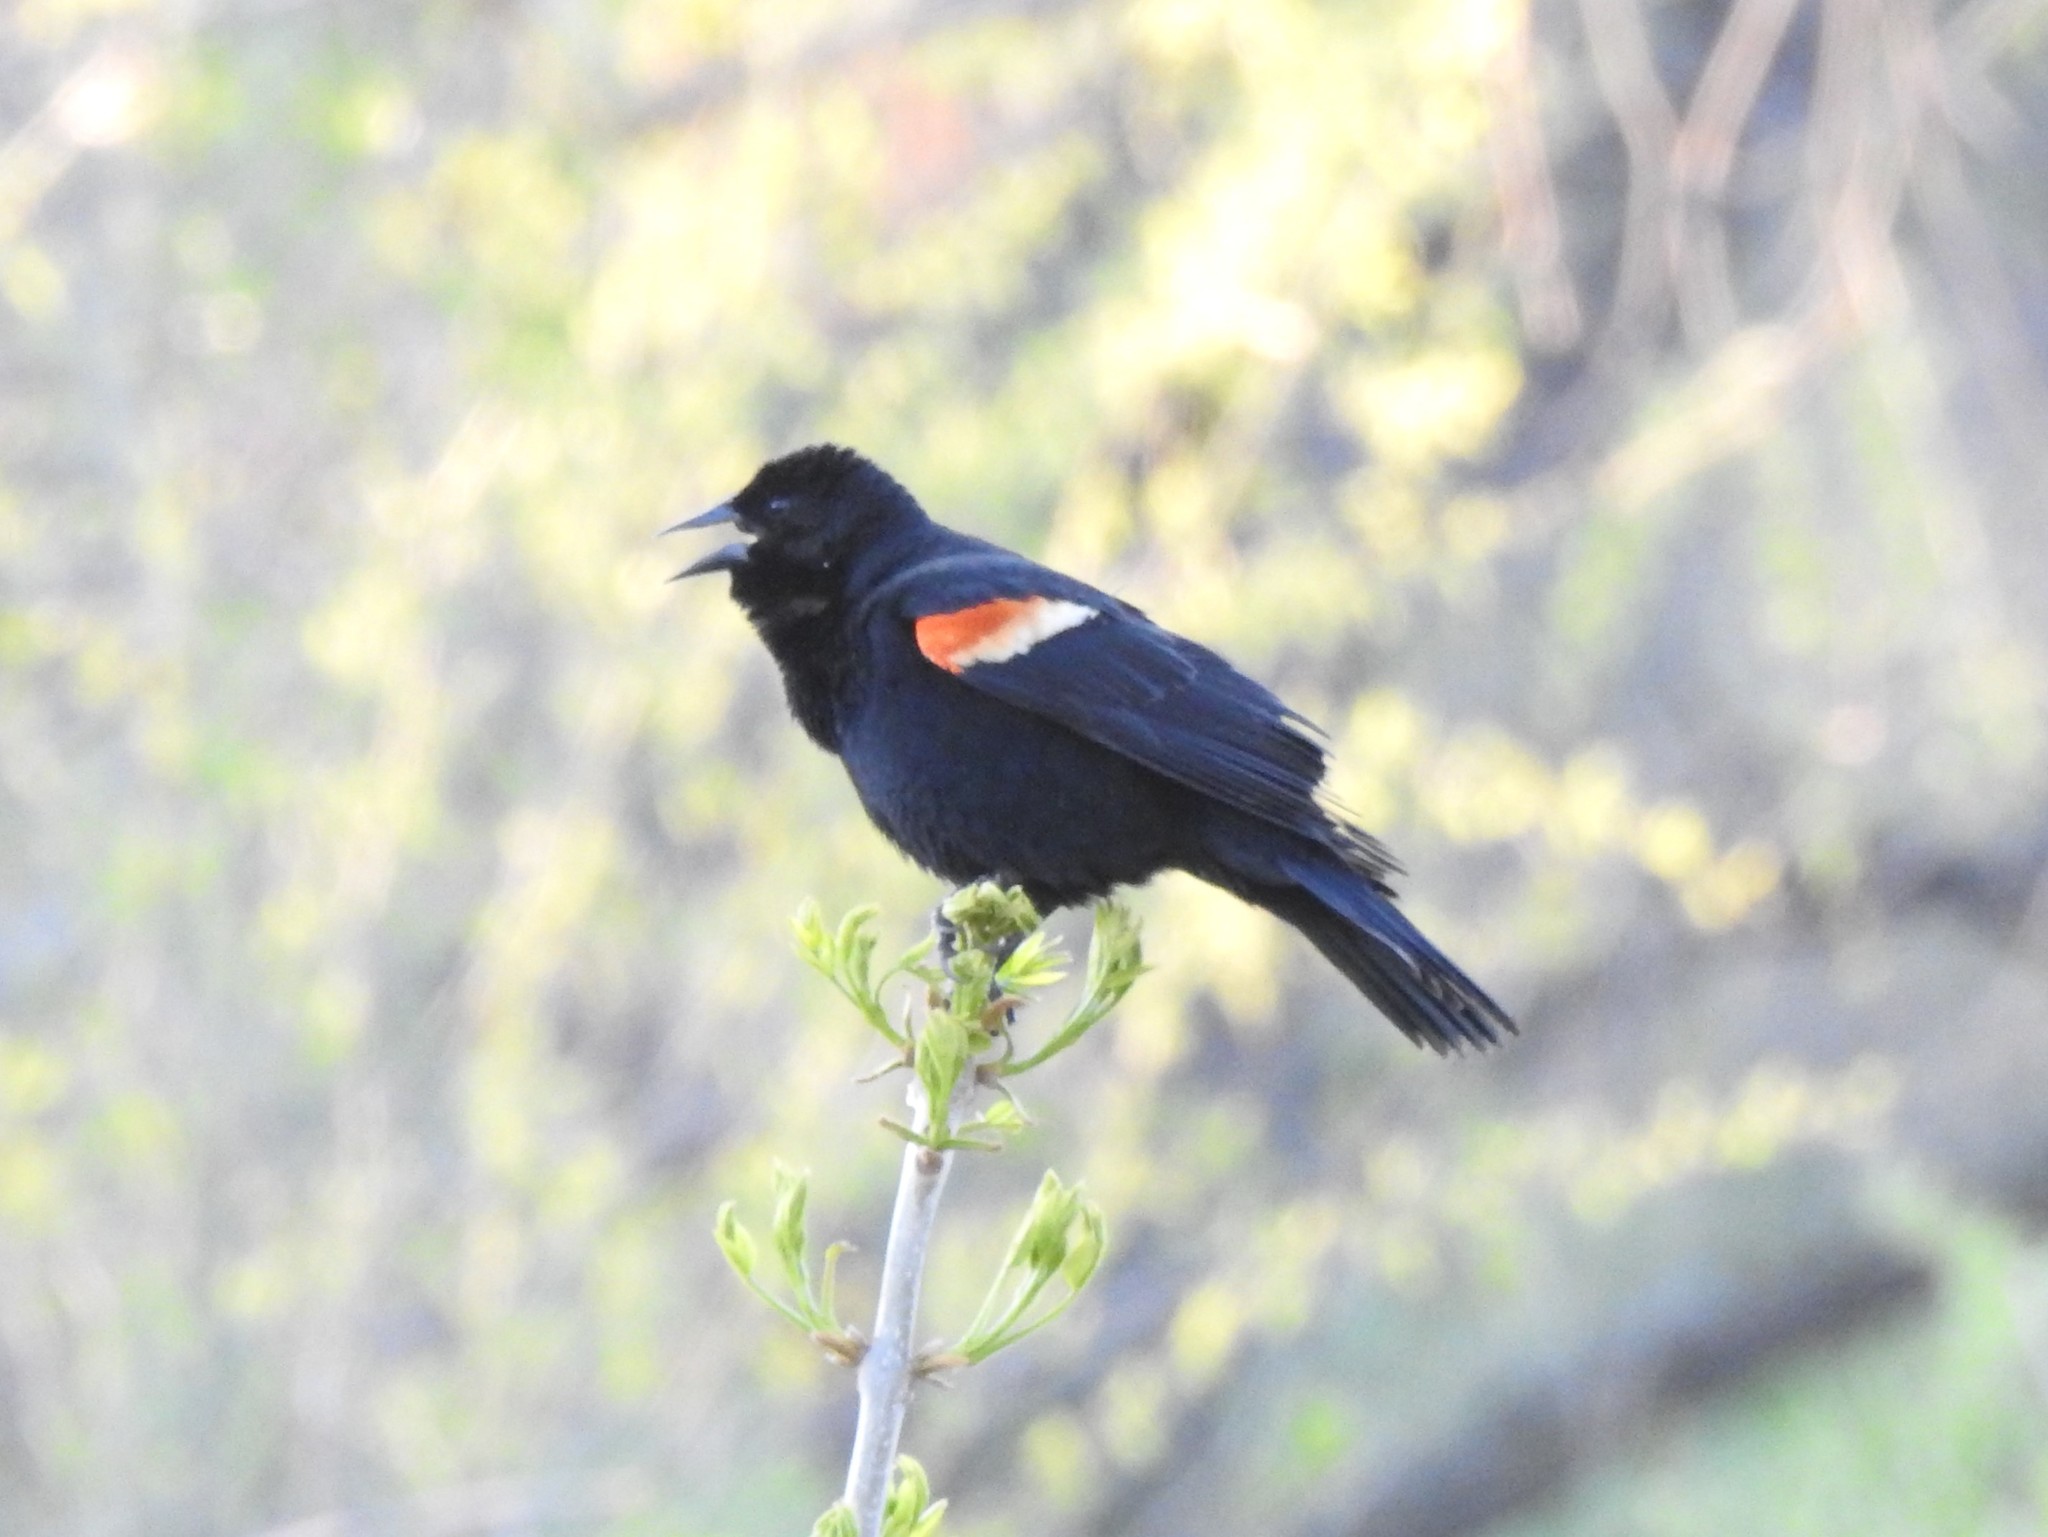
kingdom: Animalia
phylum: Chordata
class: Aves
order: Passeriformes
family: Icteridae
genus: Agelaius
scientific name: Agelaius phoeniceus
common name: Red-winged blackbird
